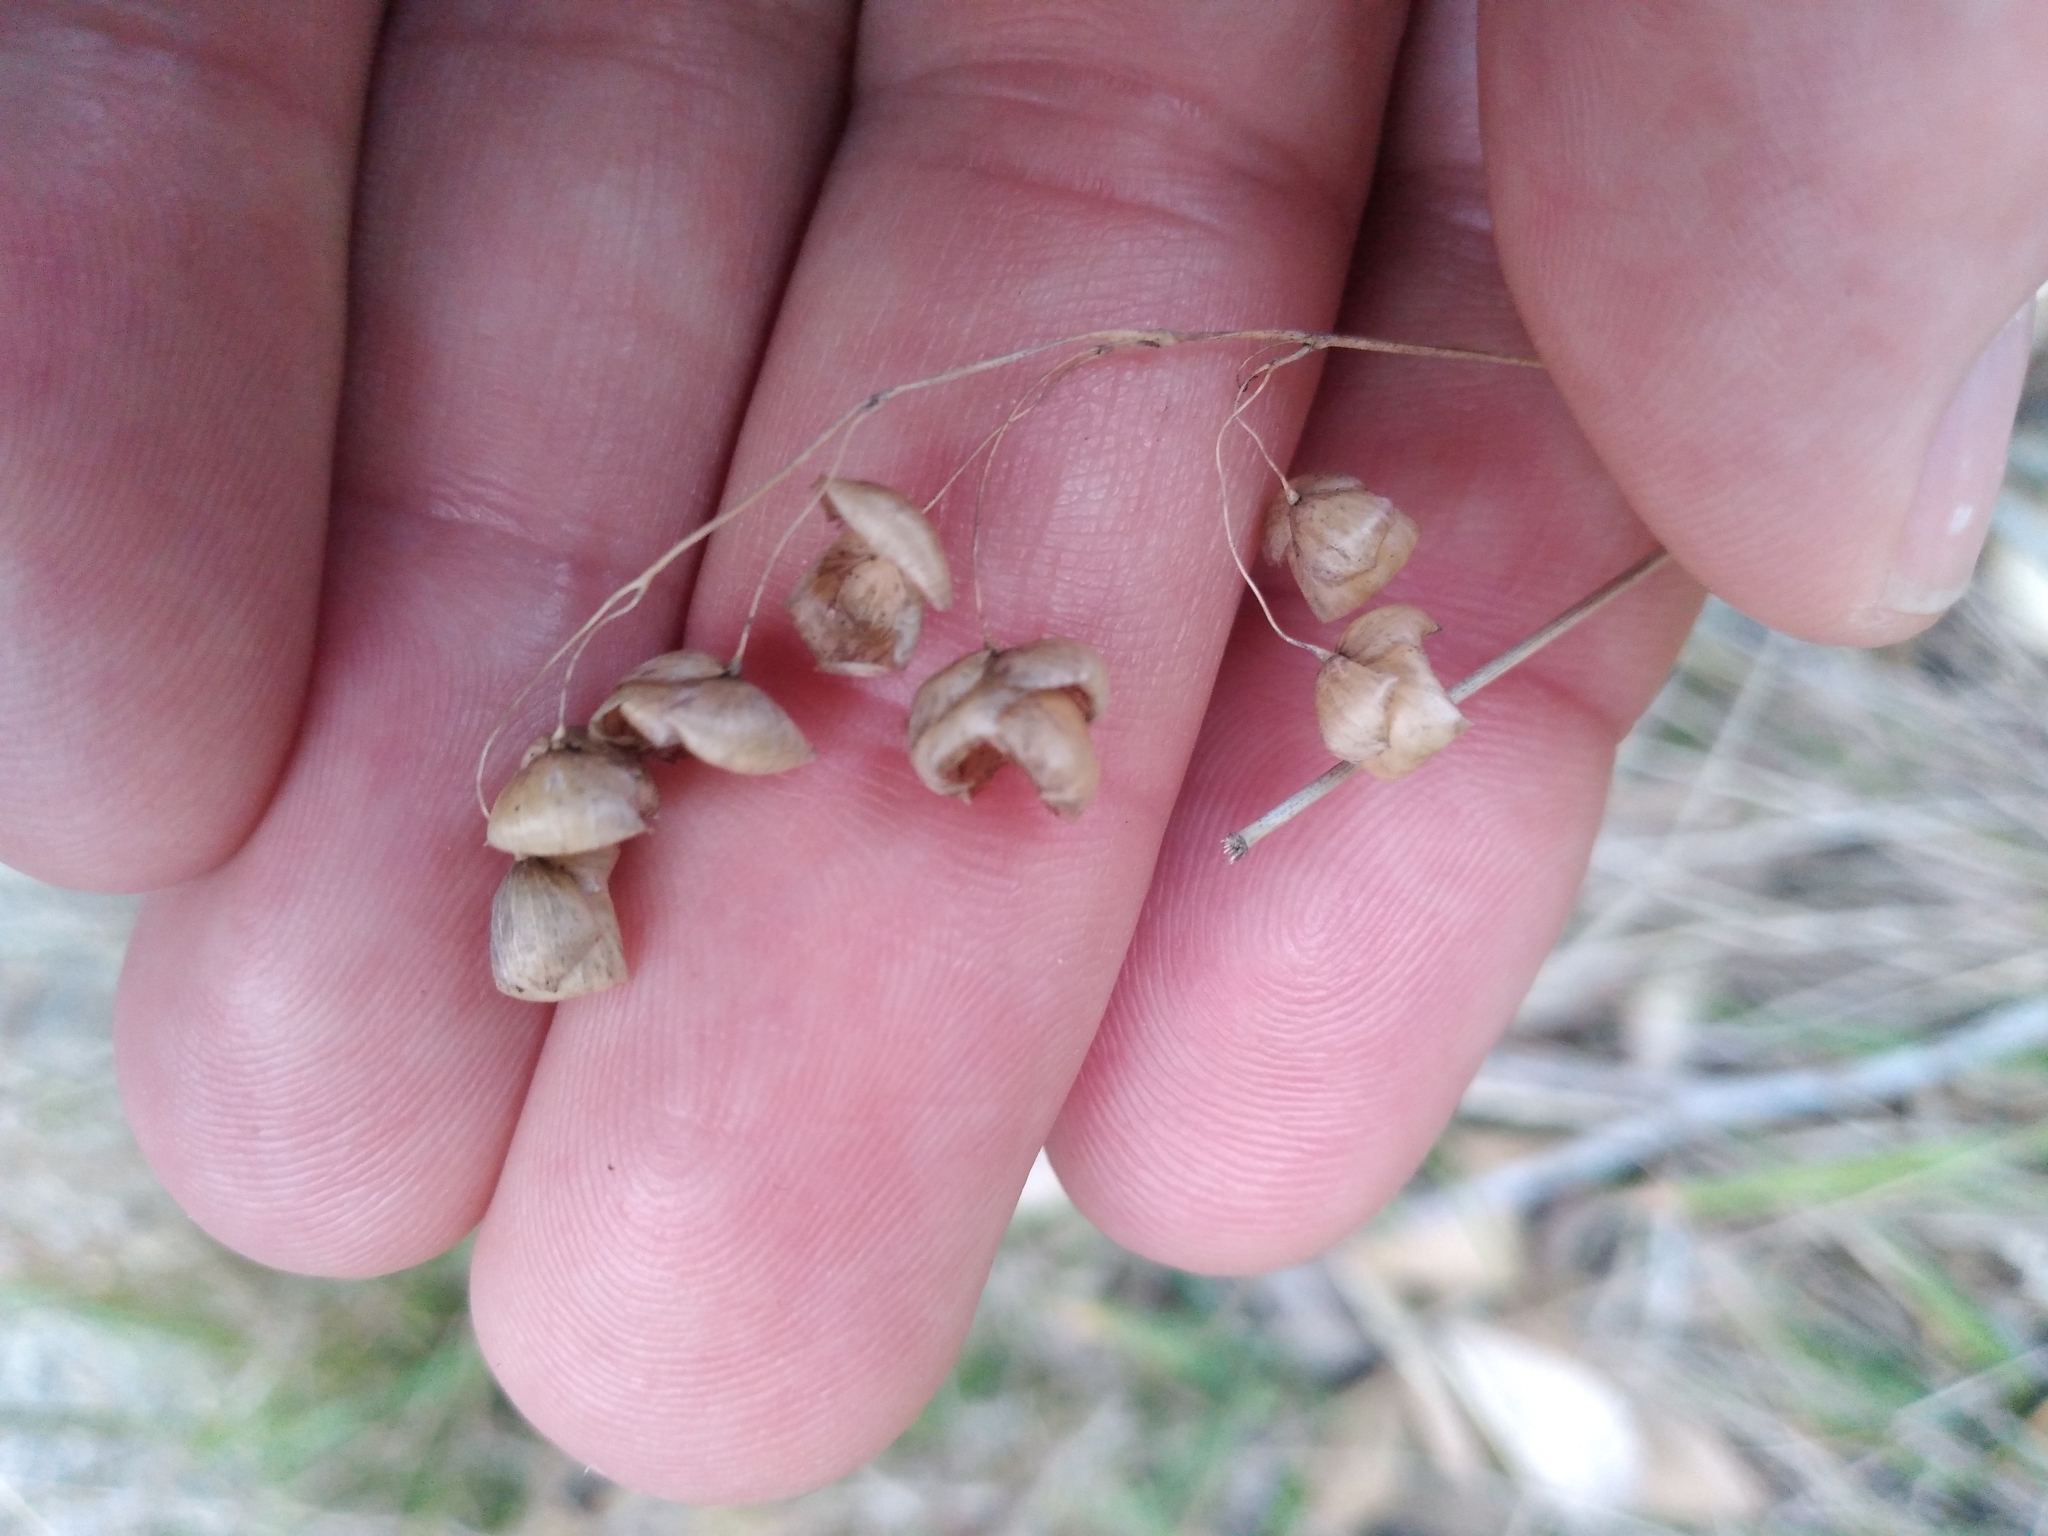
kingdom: Plantae
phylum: Tracheophyta
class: Liliopsida
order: Poales
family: Poaceae
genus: Briza
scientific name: Briza maxima
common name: Big quakinggrass
